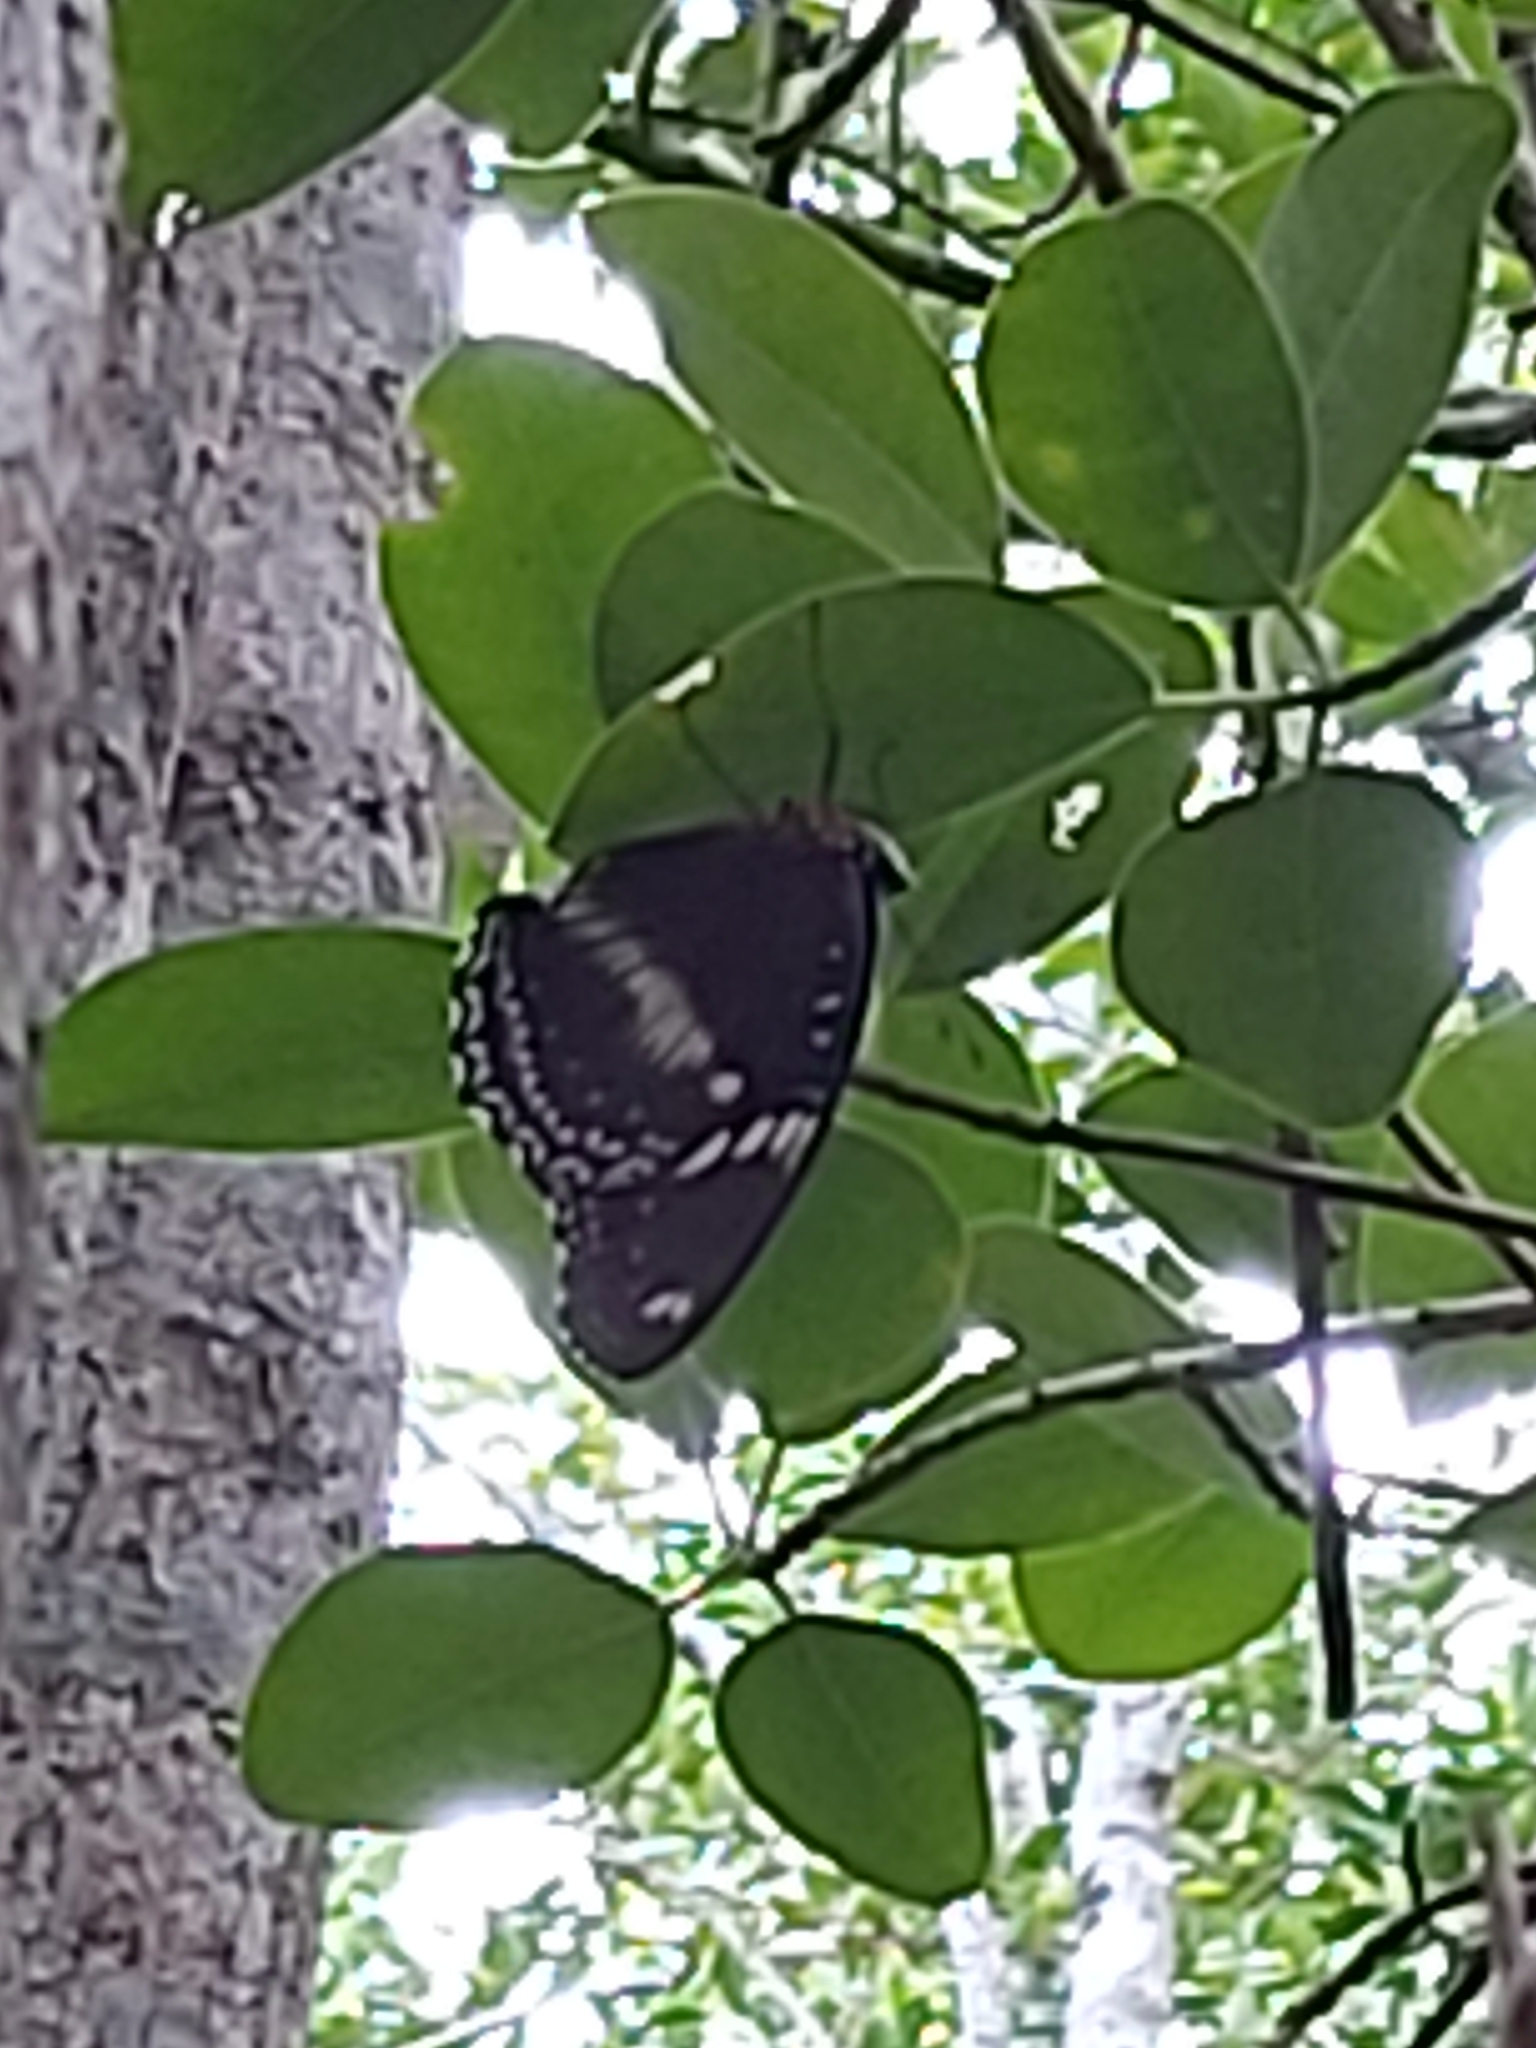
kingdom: Animalia
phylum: Arthropoda
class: Insecta
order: Lepidoptera
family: Nymphalidae
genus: Hypolimnas
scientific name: Hypolimnas bolina
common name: Great eggfly
